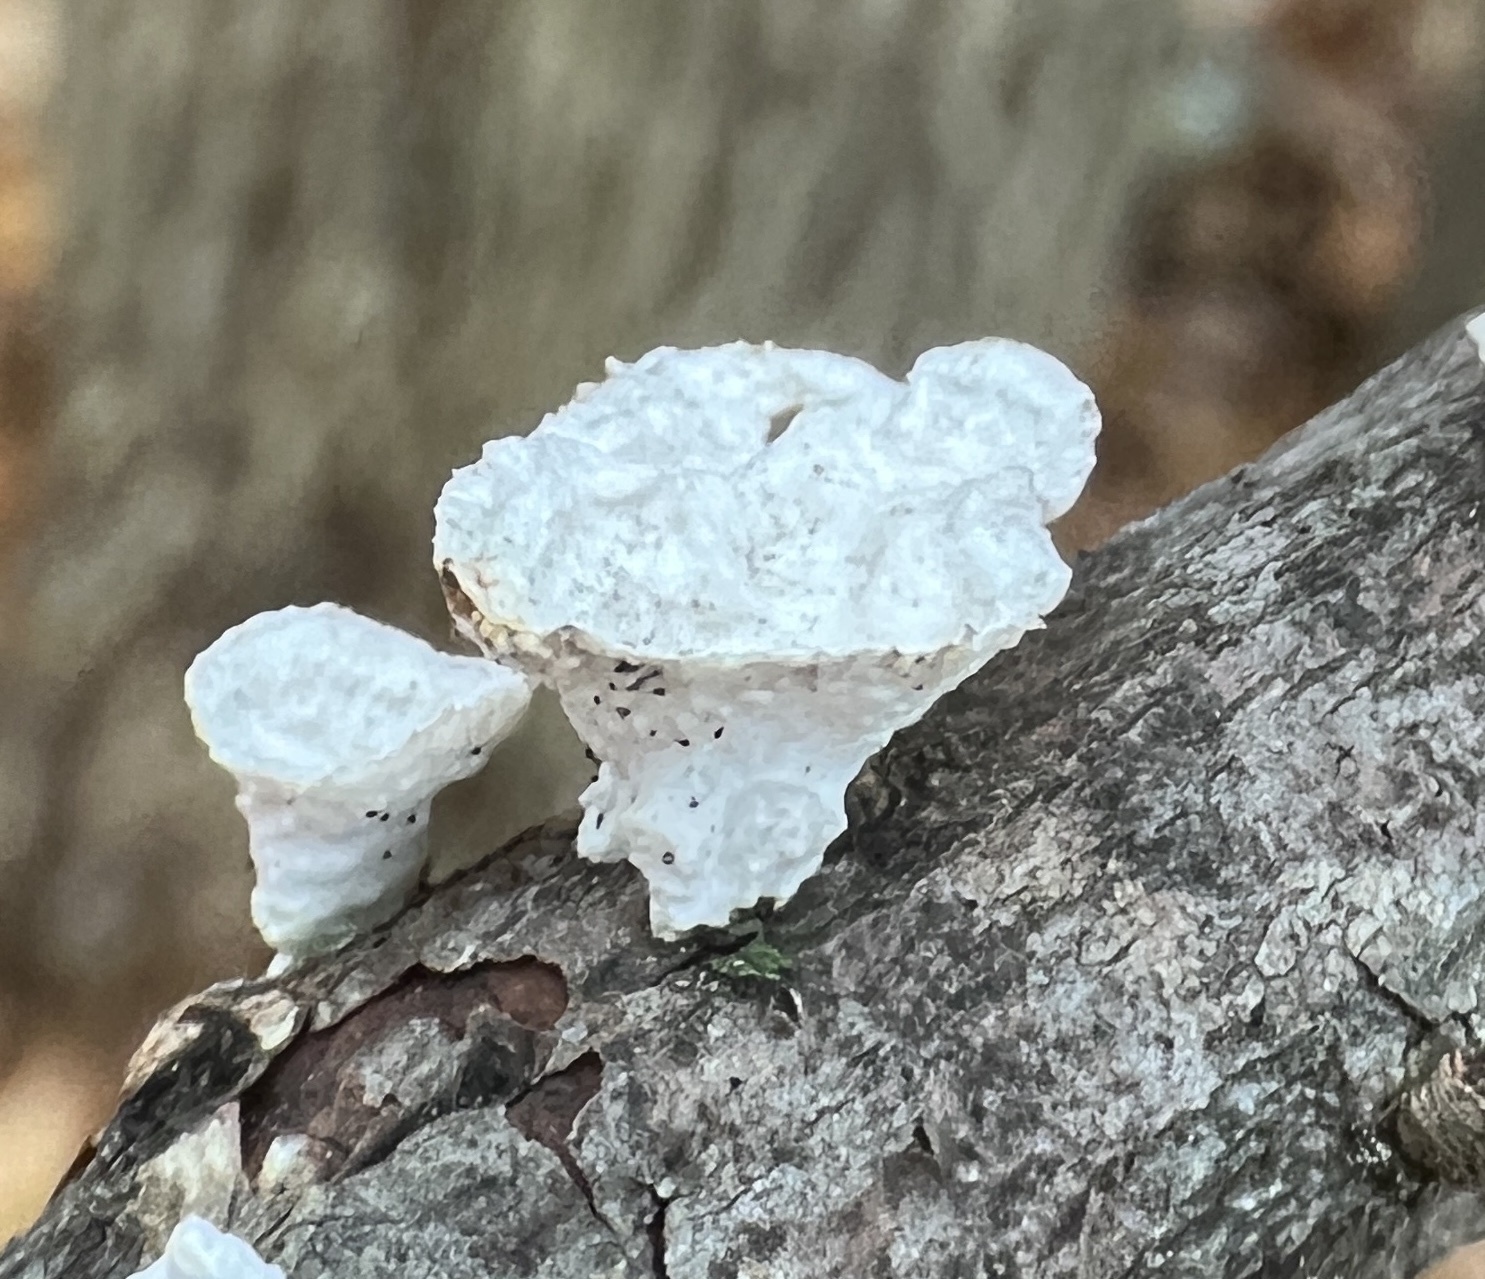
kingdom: Fungi
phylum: Basidiomycota
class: Agaricomycetes
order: Polyporales
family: Polyporaceae
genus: Poronidulus
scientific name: Poronidulus conchifer
